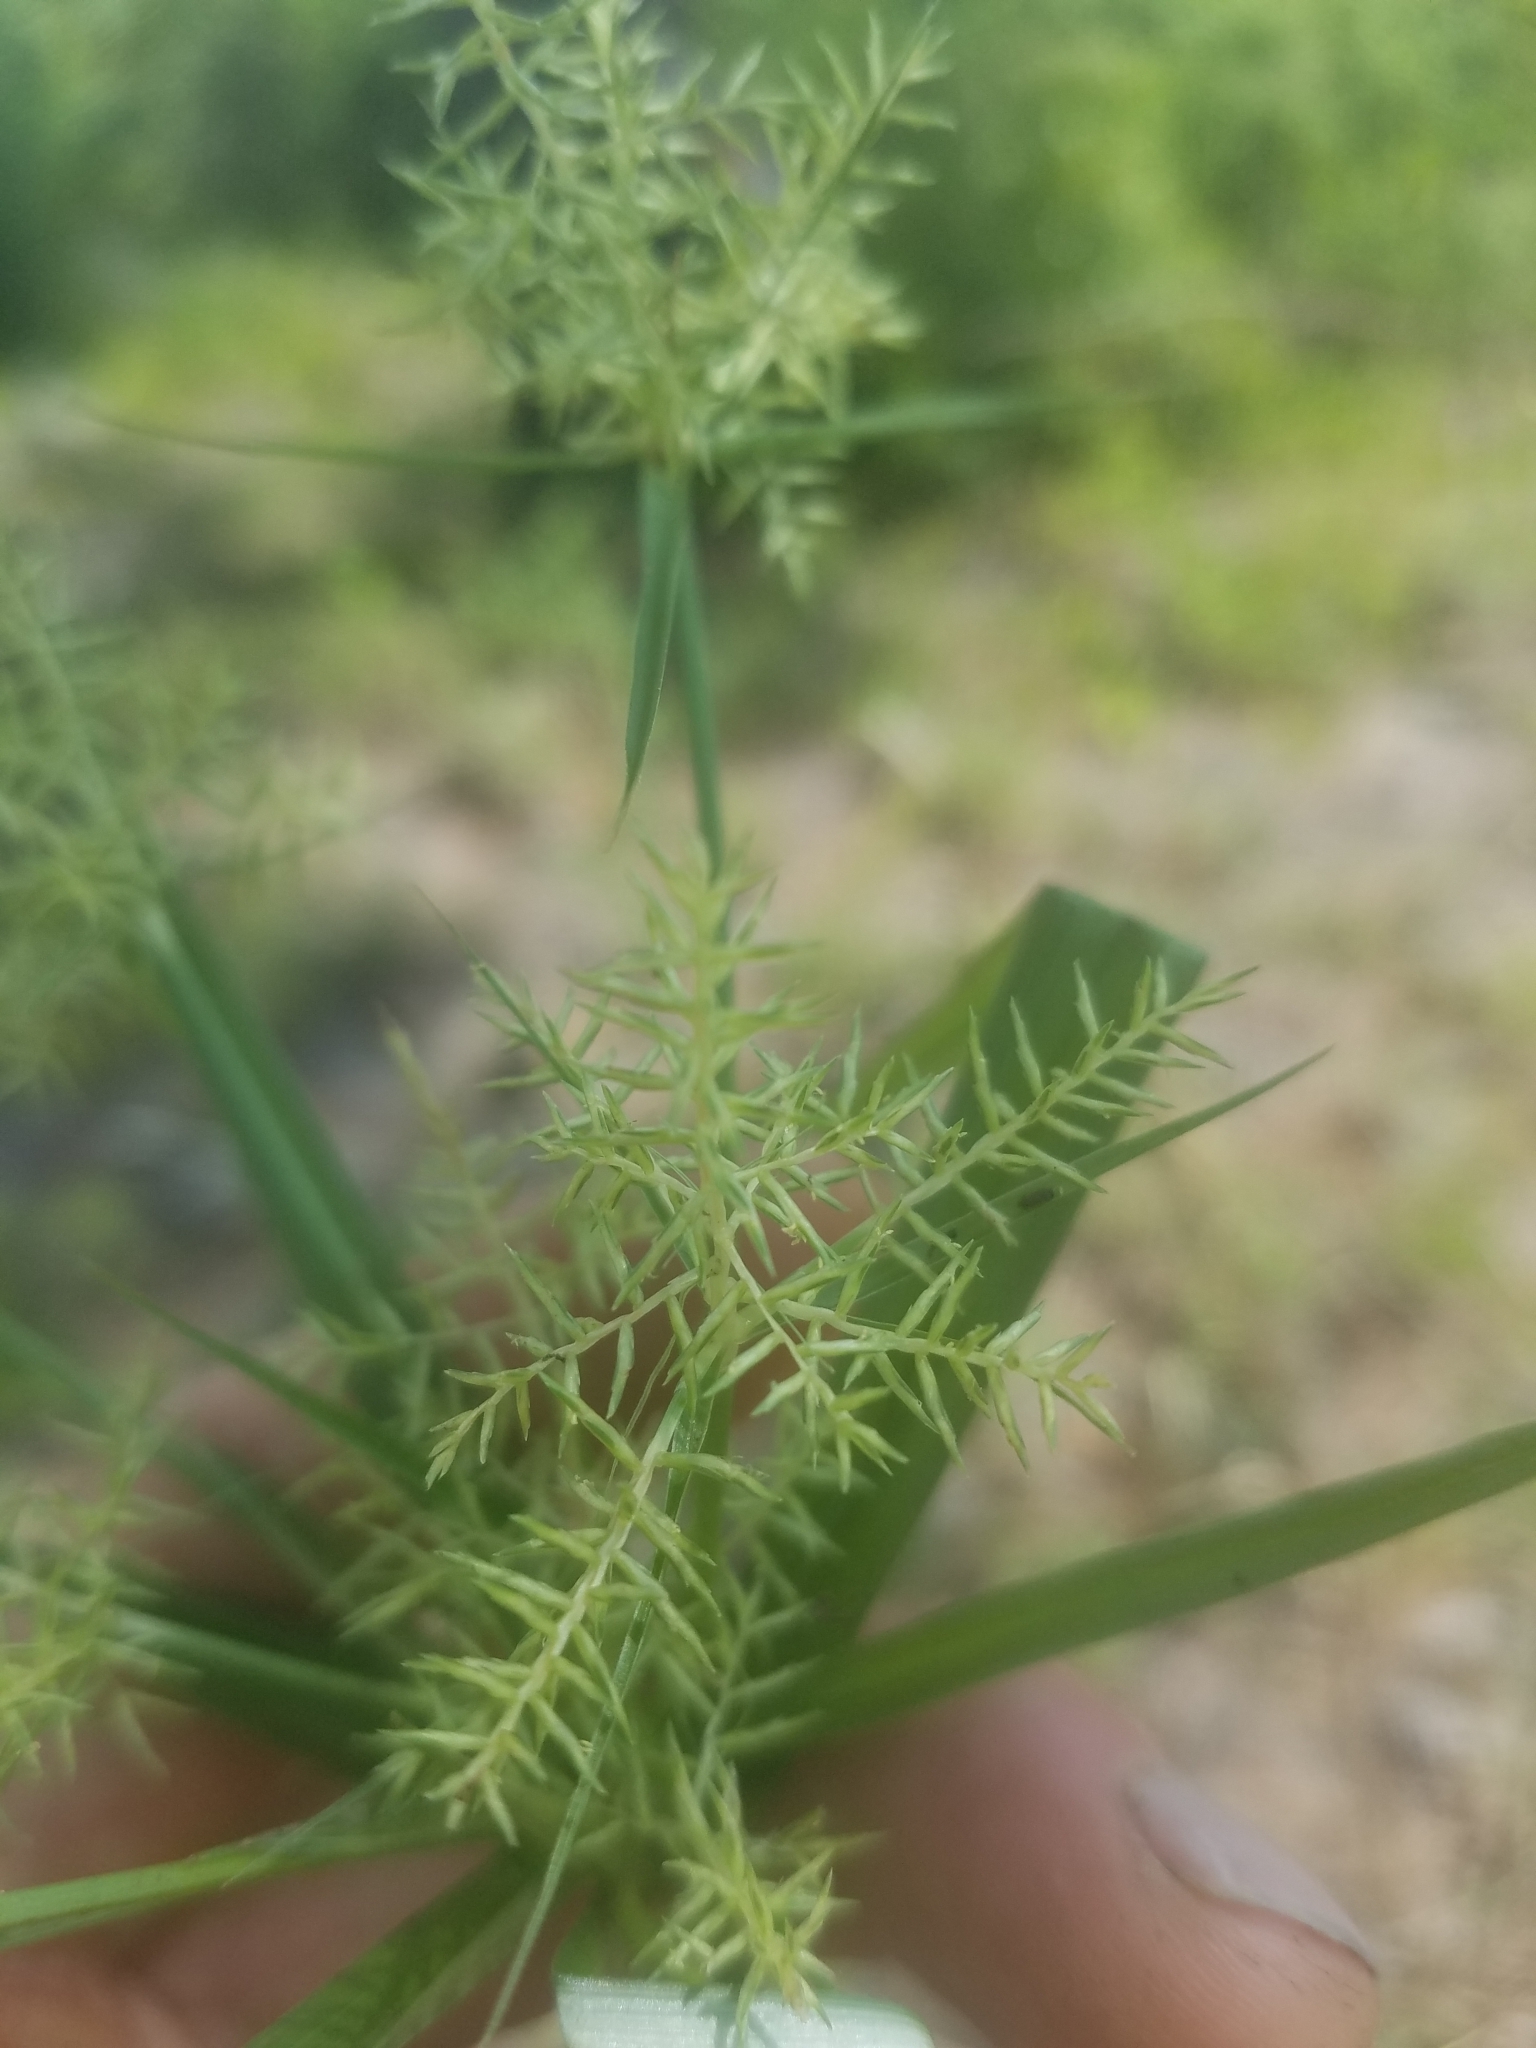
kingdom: Plantae
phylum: Tracheophyta
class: Liliopsida
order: Poales
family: Cyperaceae
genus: Cyperus
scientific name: Cyperus odoratus
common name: Fragrant flatsedge
